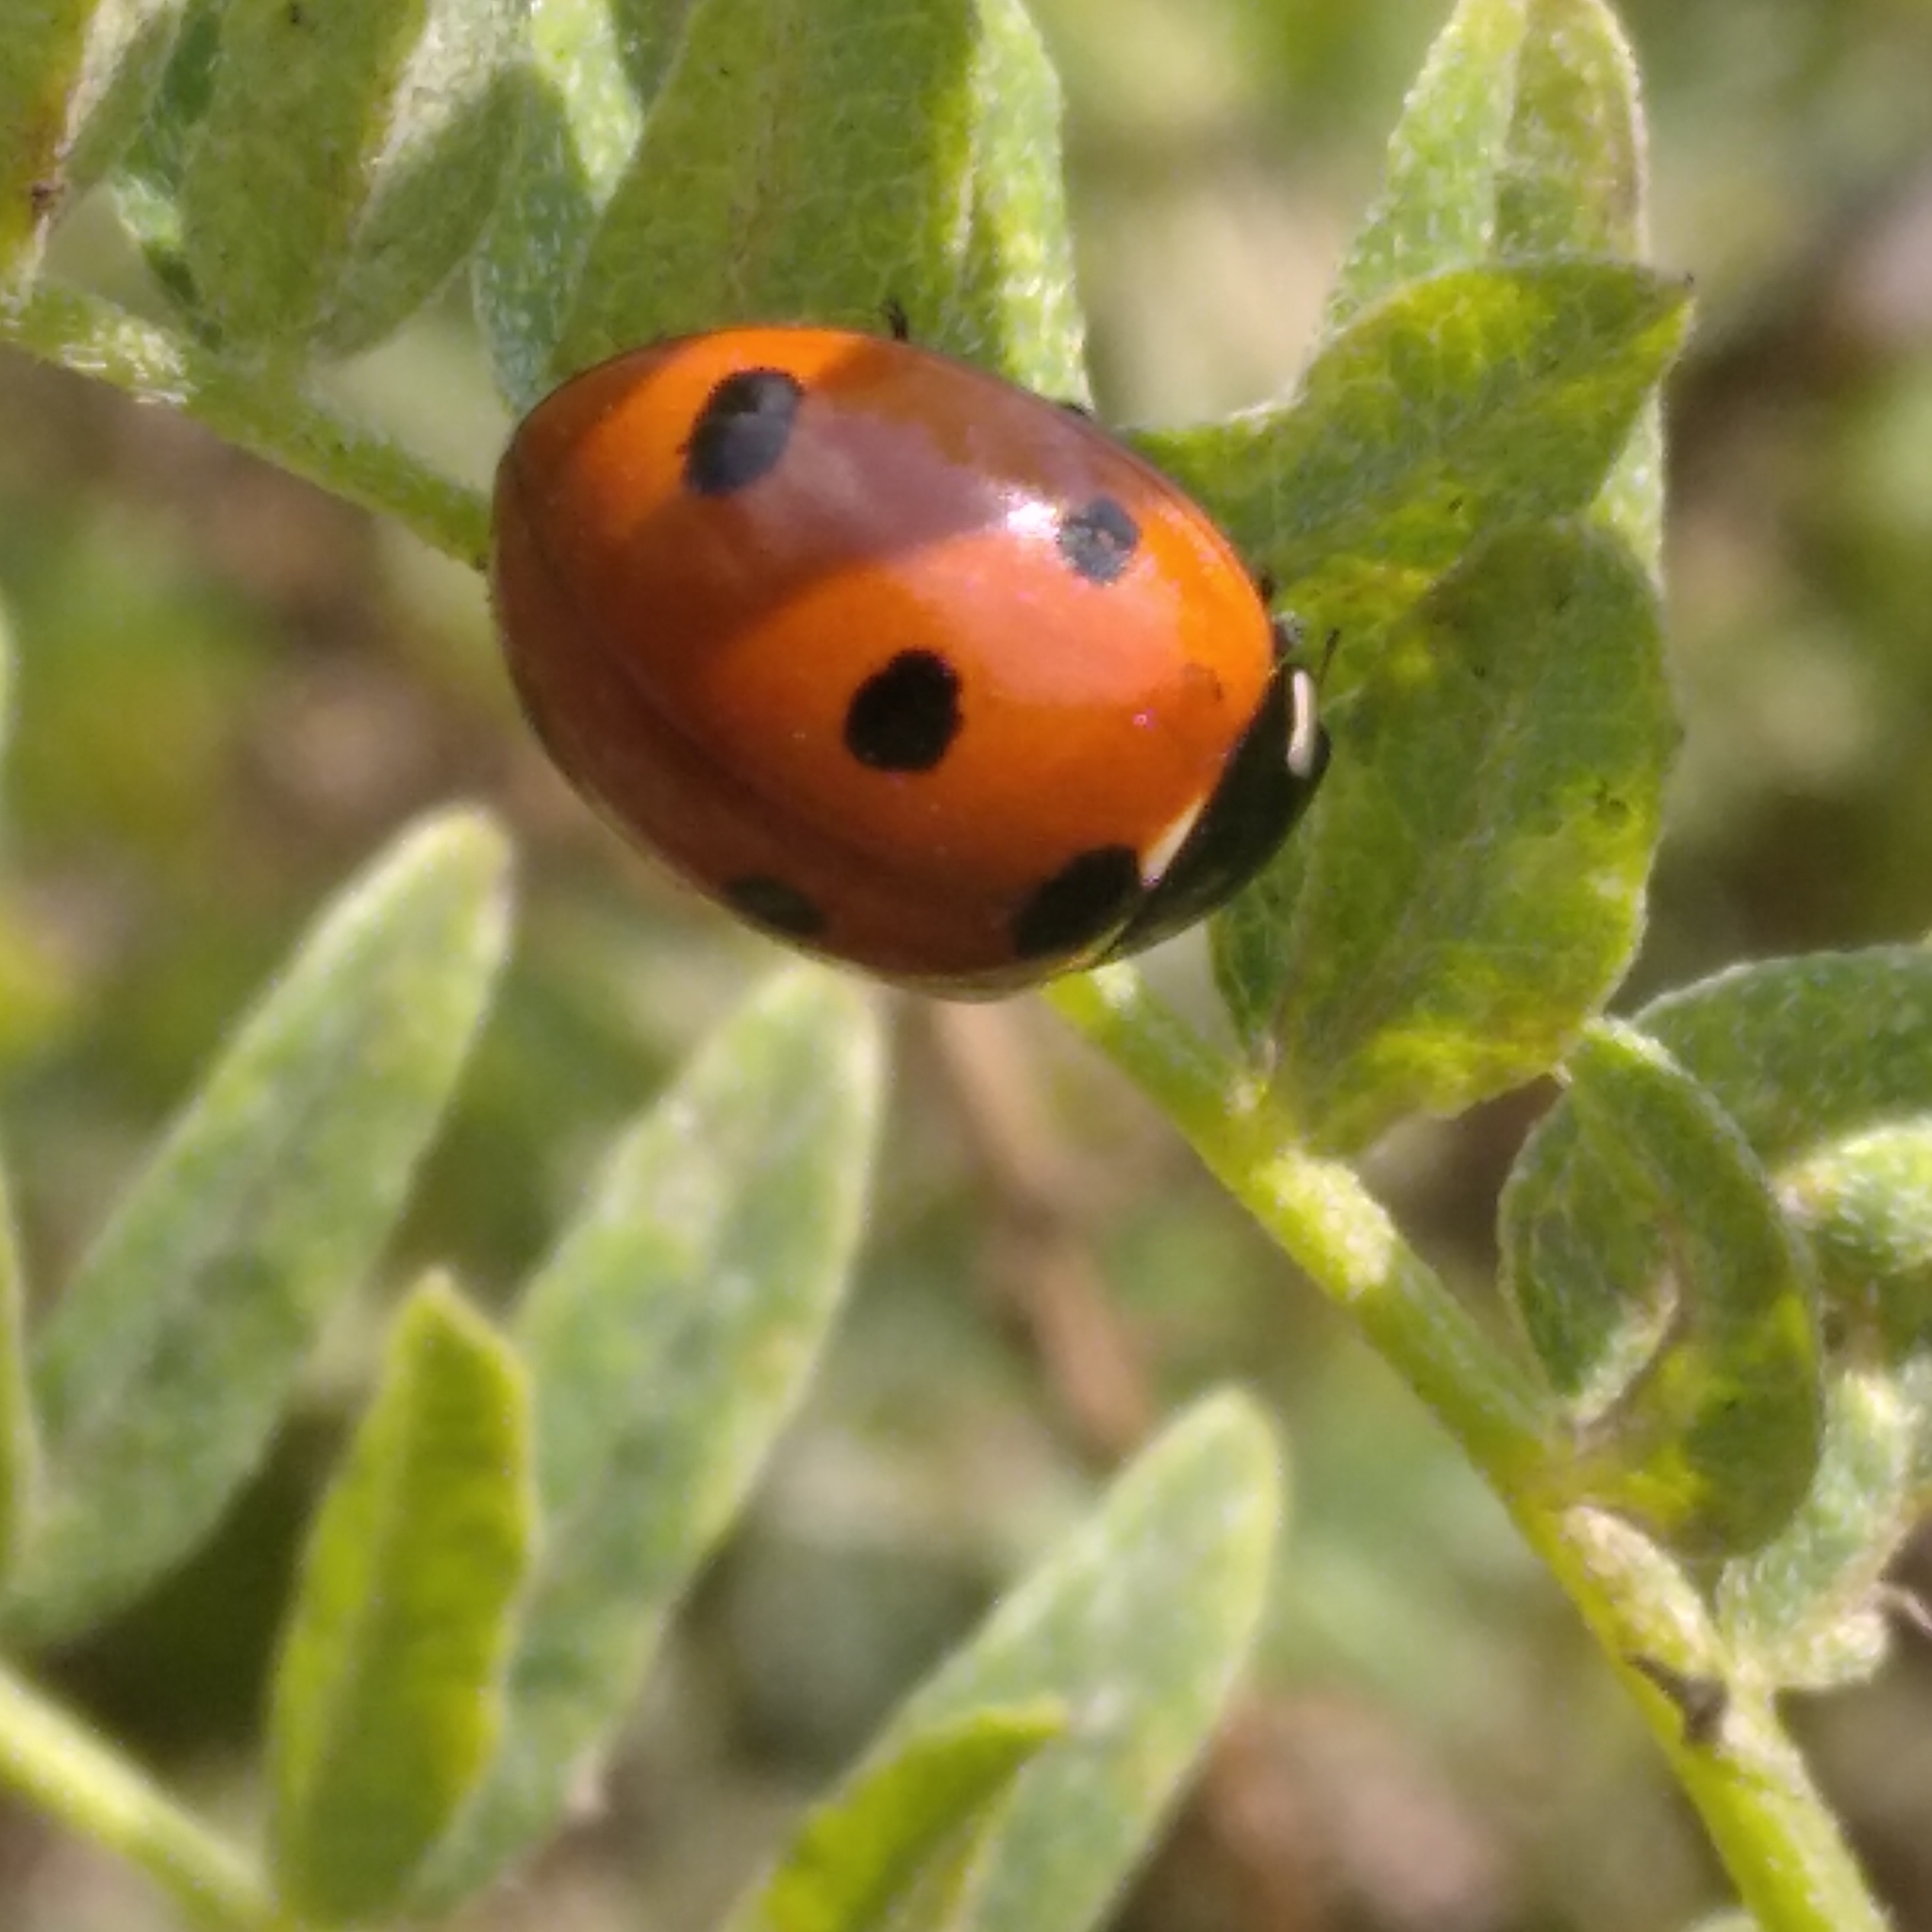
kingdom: Animalia
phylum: Arthropoda
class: Insecta
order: Coleoptera
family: Coccinellidae
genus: Coccinella
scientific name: Coccinella septempunctata
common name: Sevenspotted lady beetle
